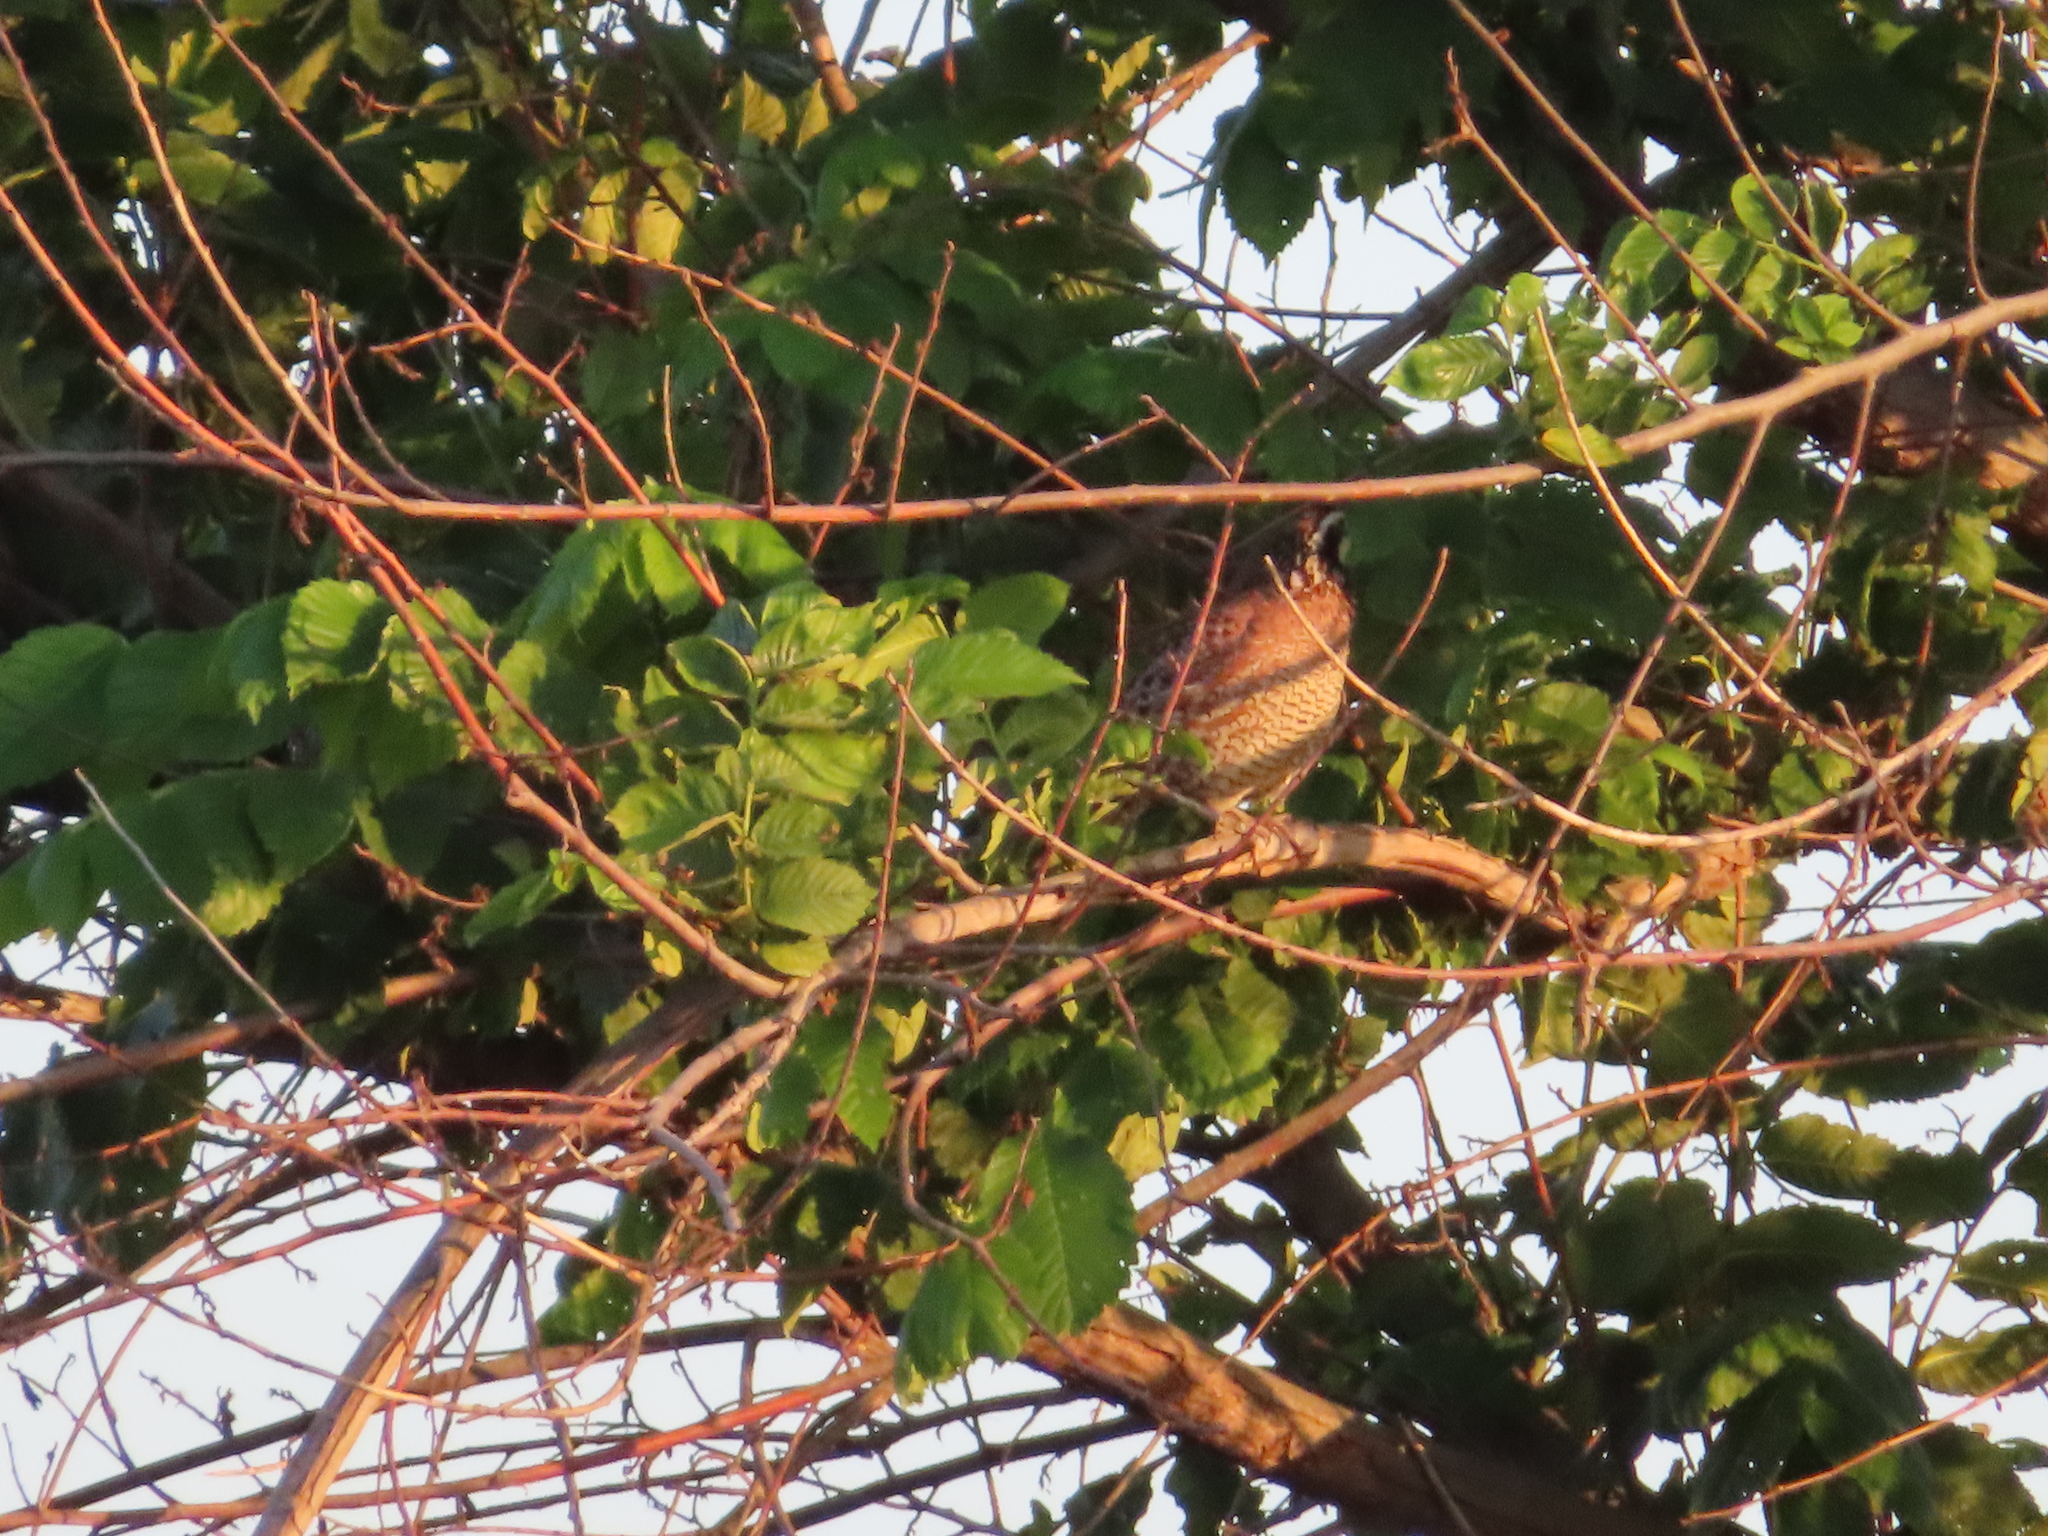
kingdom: Animalia
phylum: Chordata
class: Aves
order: Galliformes
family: Odontophoridae
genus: Colinus
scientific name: Colinus virginianus
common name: Northern bobwhite
